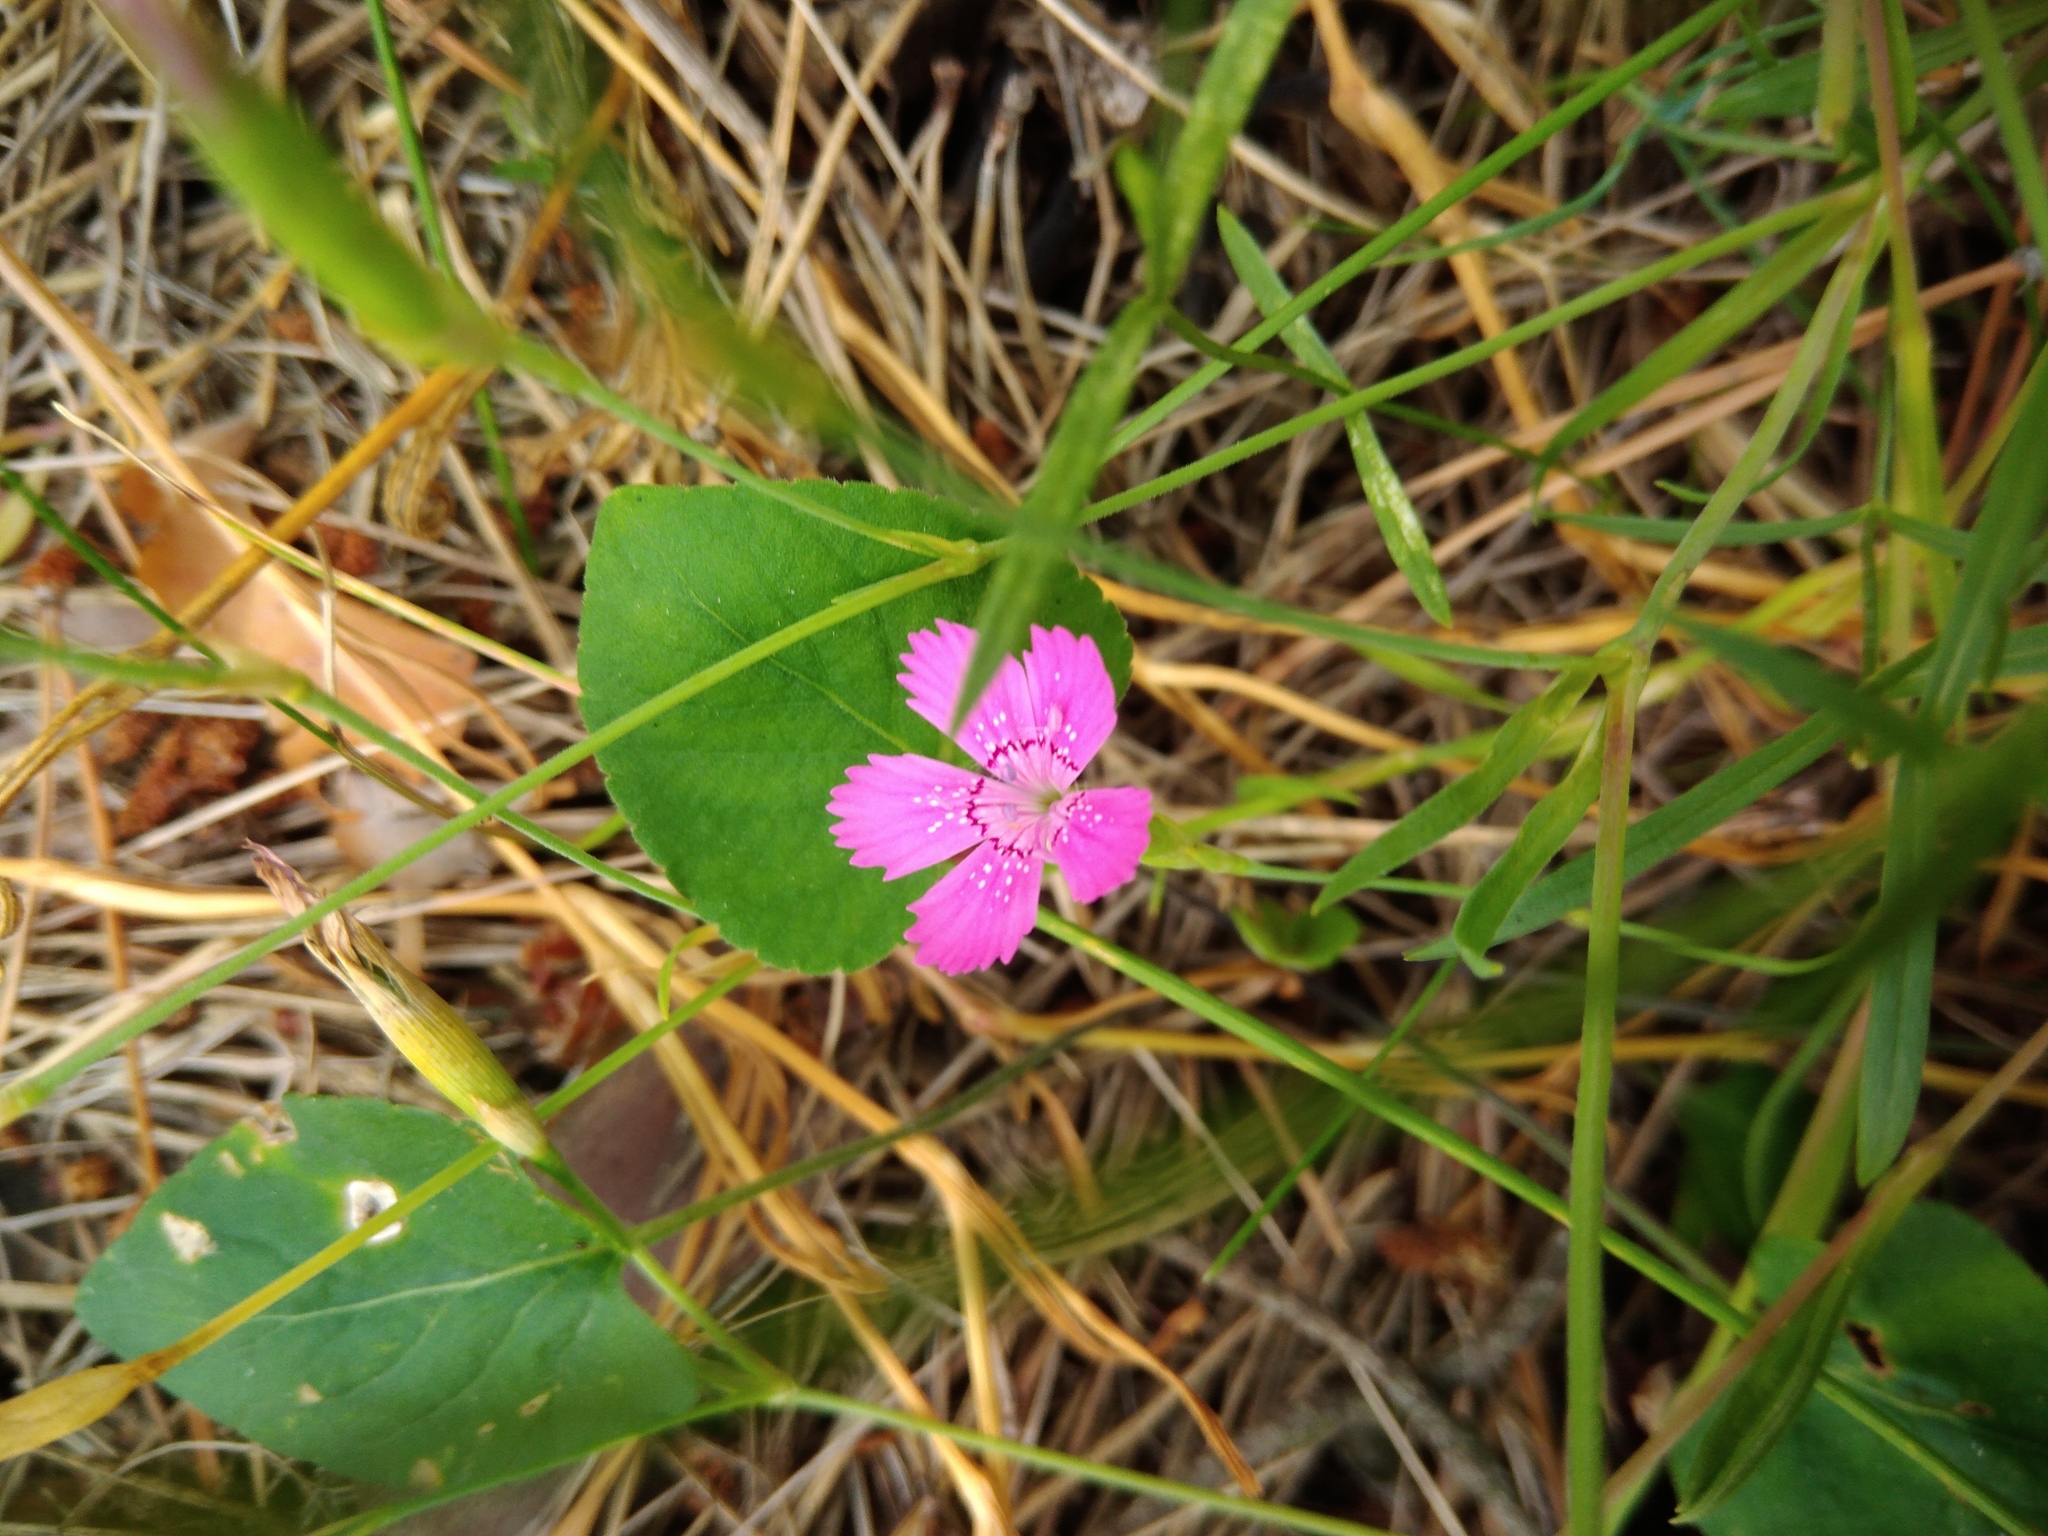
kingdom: Plantae
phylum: Tracheophyta
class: Magnoliopsida
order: Caryophyllales
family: Caryophyllaceae
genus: Dianthus
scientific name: Dianthus campestris
